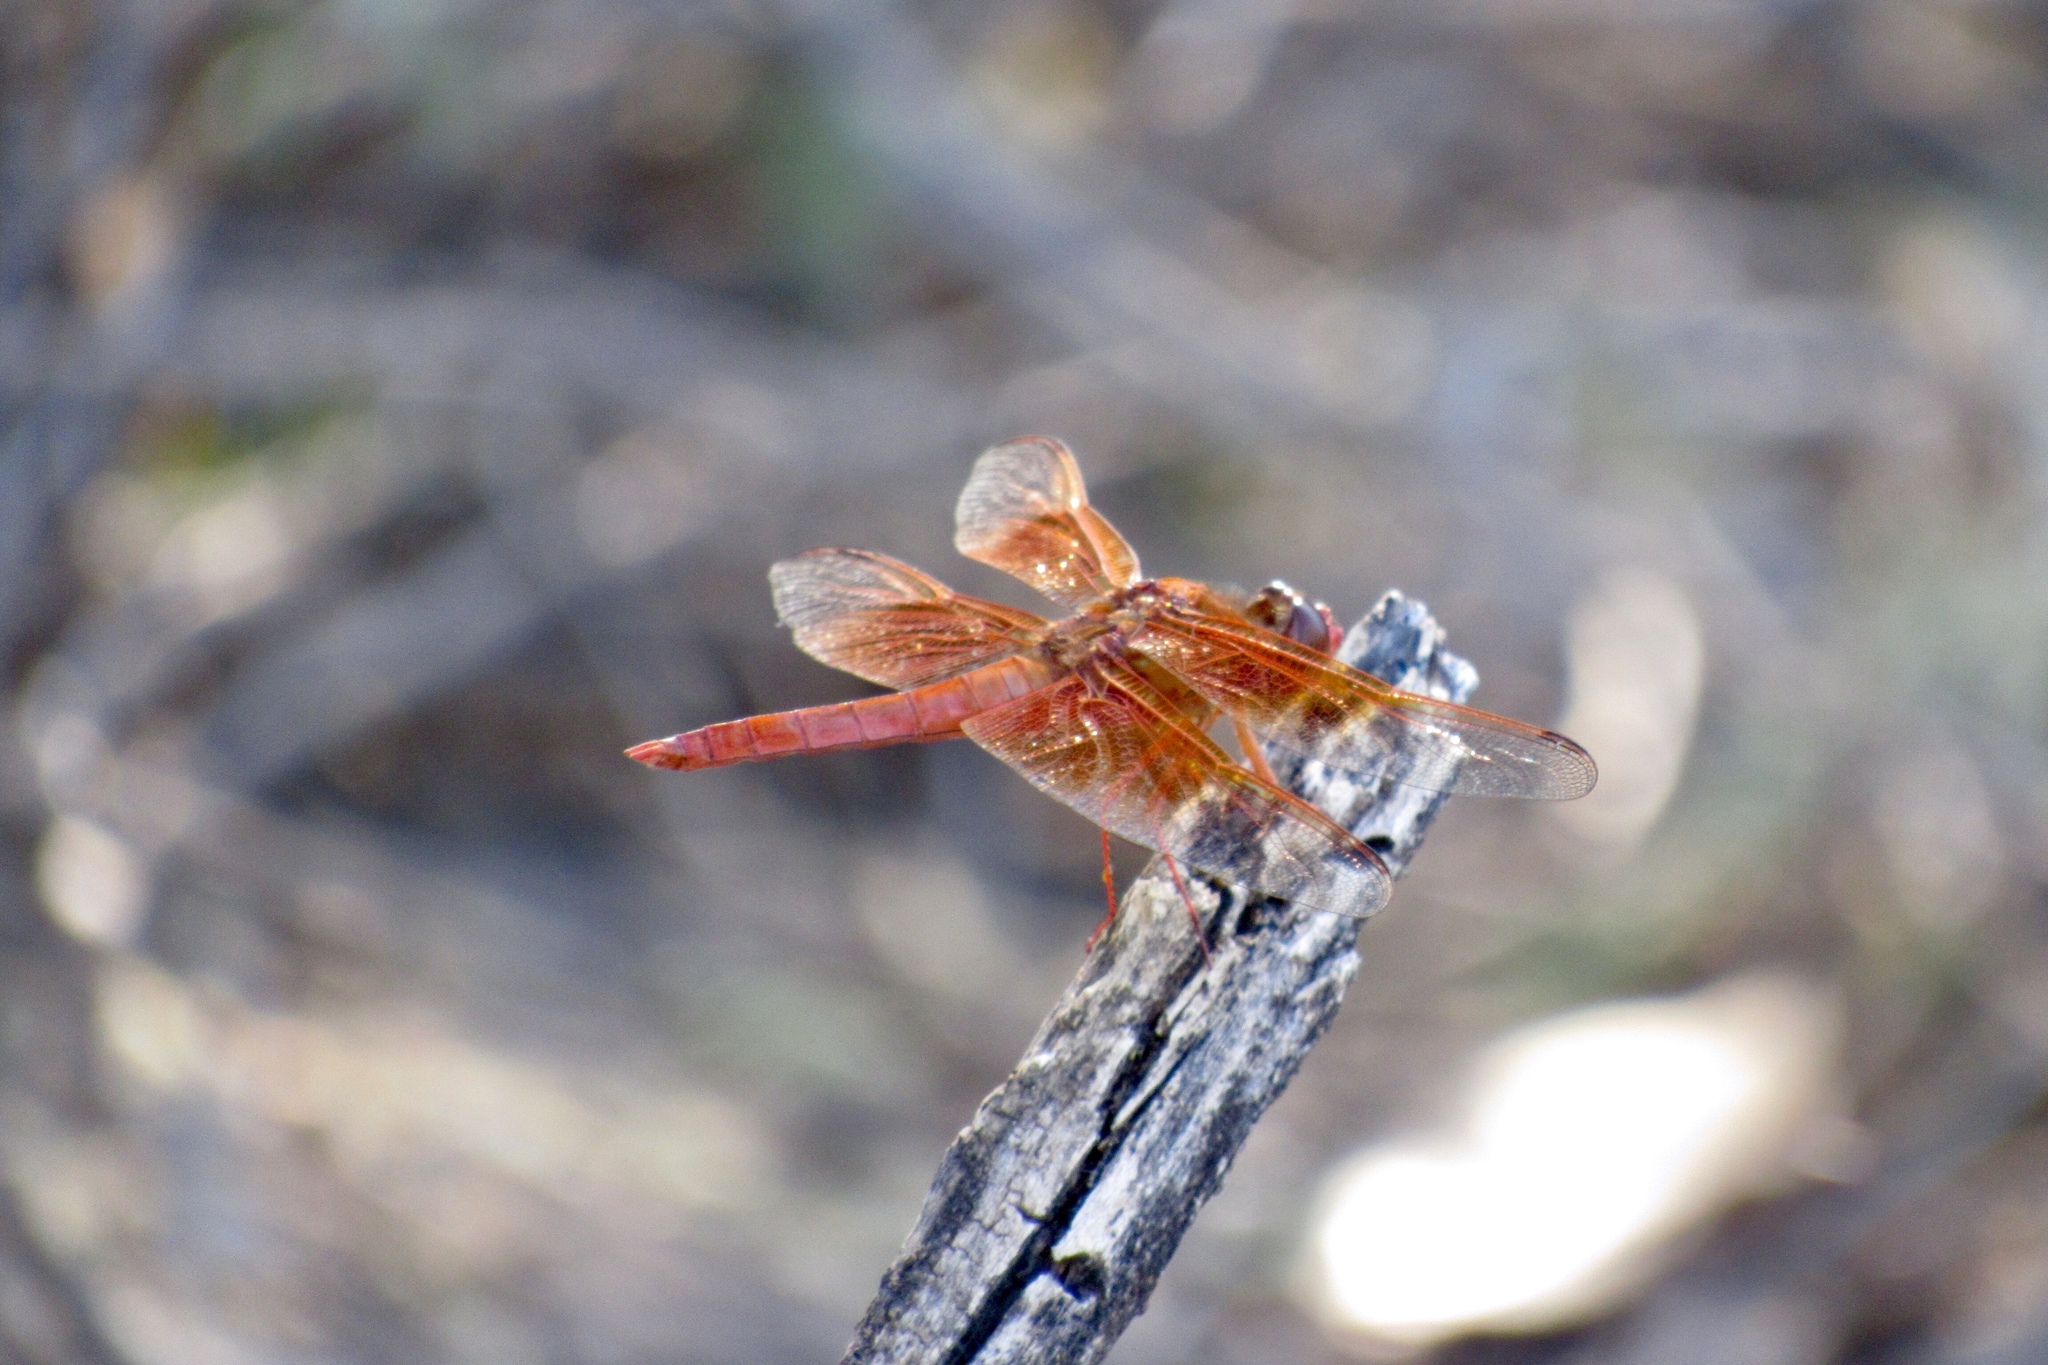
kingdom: Animalia
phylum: Arthropoda
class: Insecta
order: Odonata
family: Libellulidae
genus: Libellula
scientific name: Libellula saturata
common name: Flame skimmer
